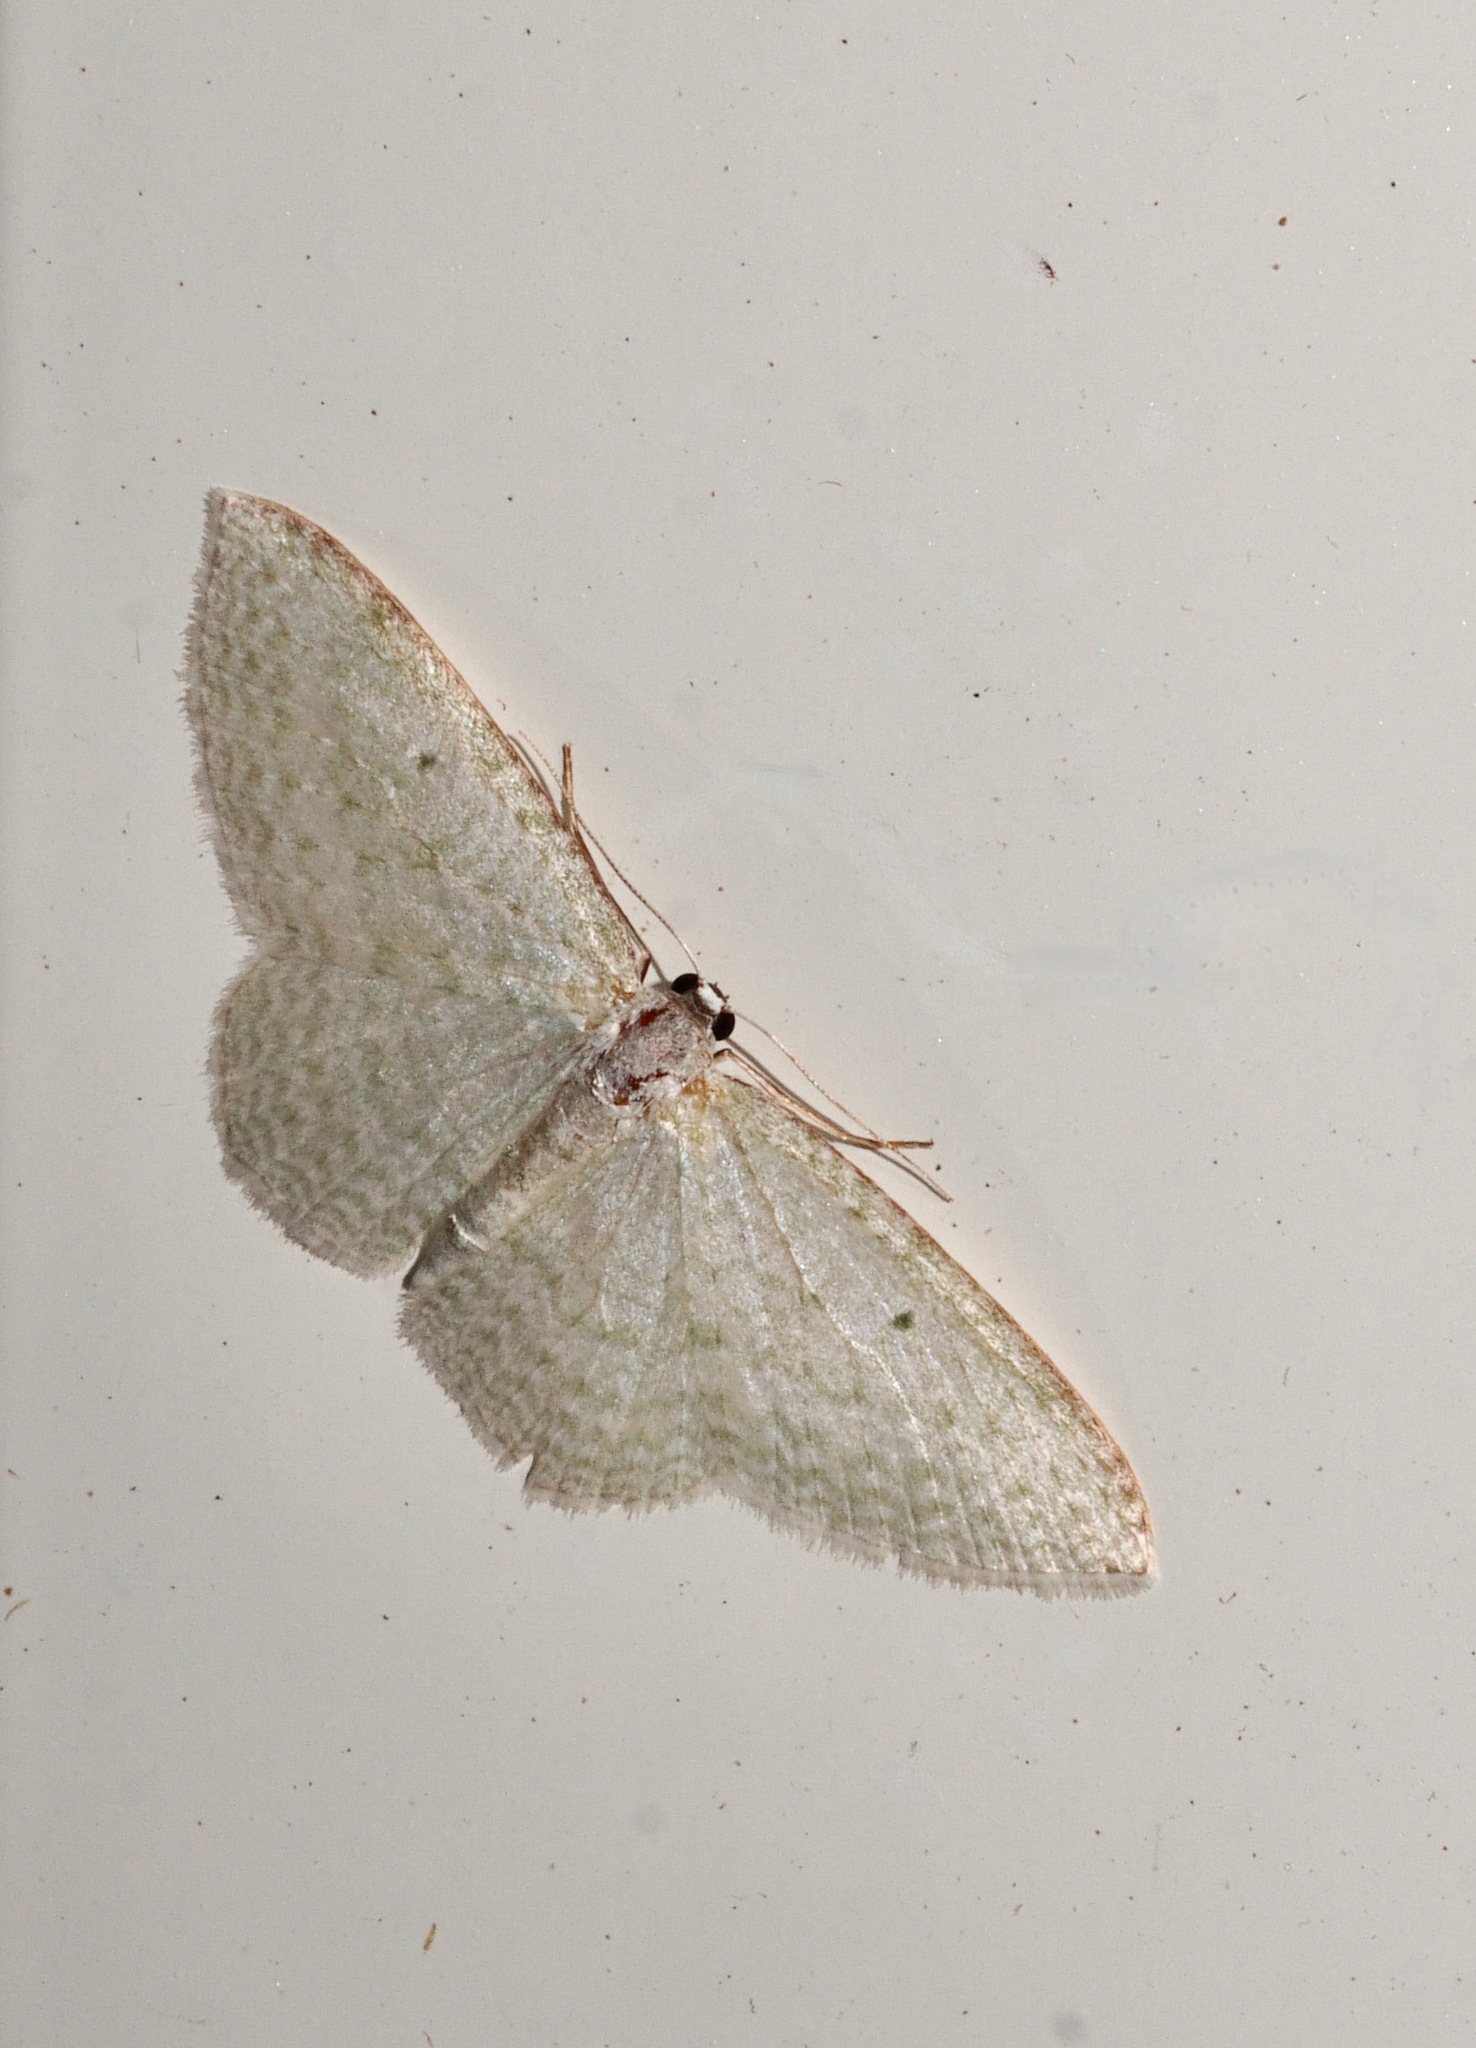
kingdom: Animalia
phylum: Arthropoda
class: Insecta
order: Lepidoptera
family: Geometridae
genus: Poecilasthena
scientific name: Poecilasthena pulchraria
